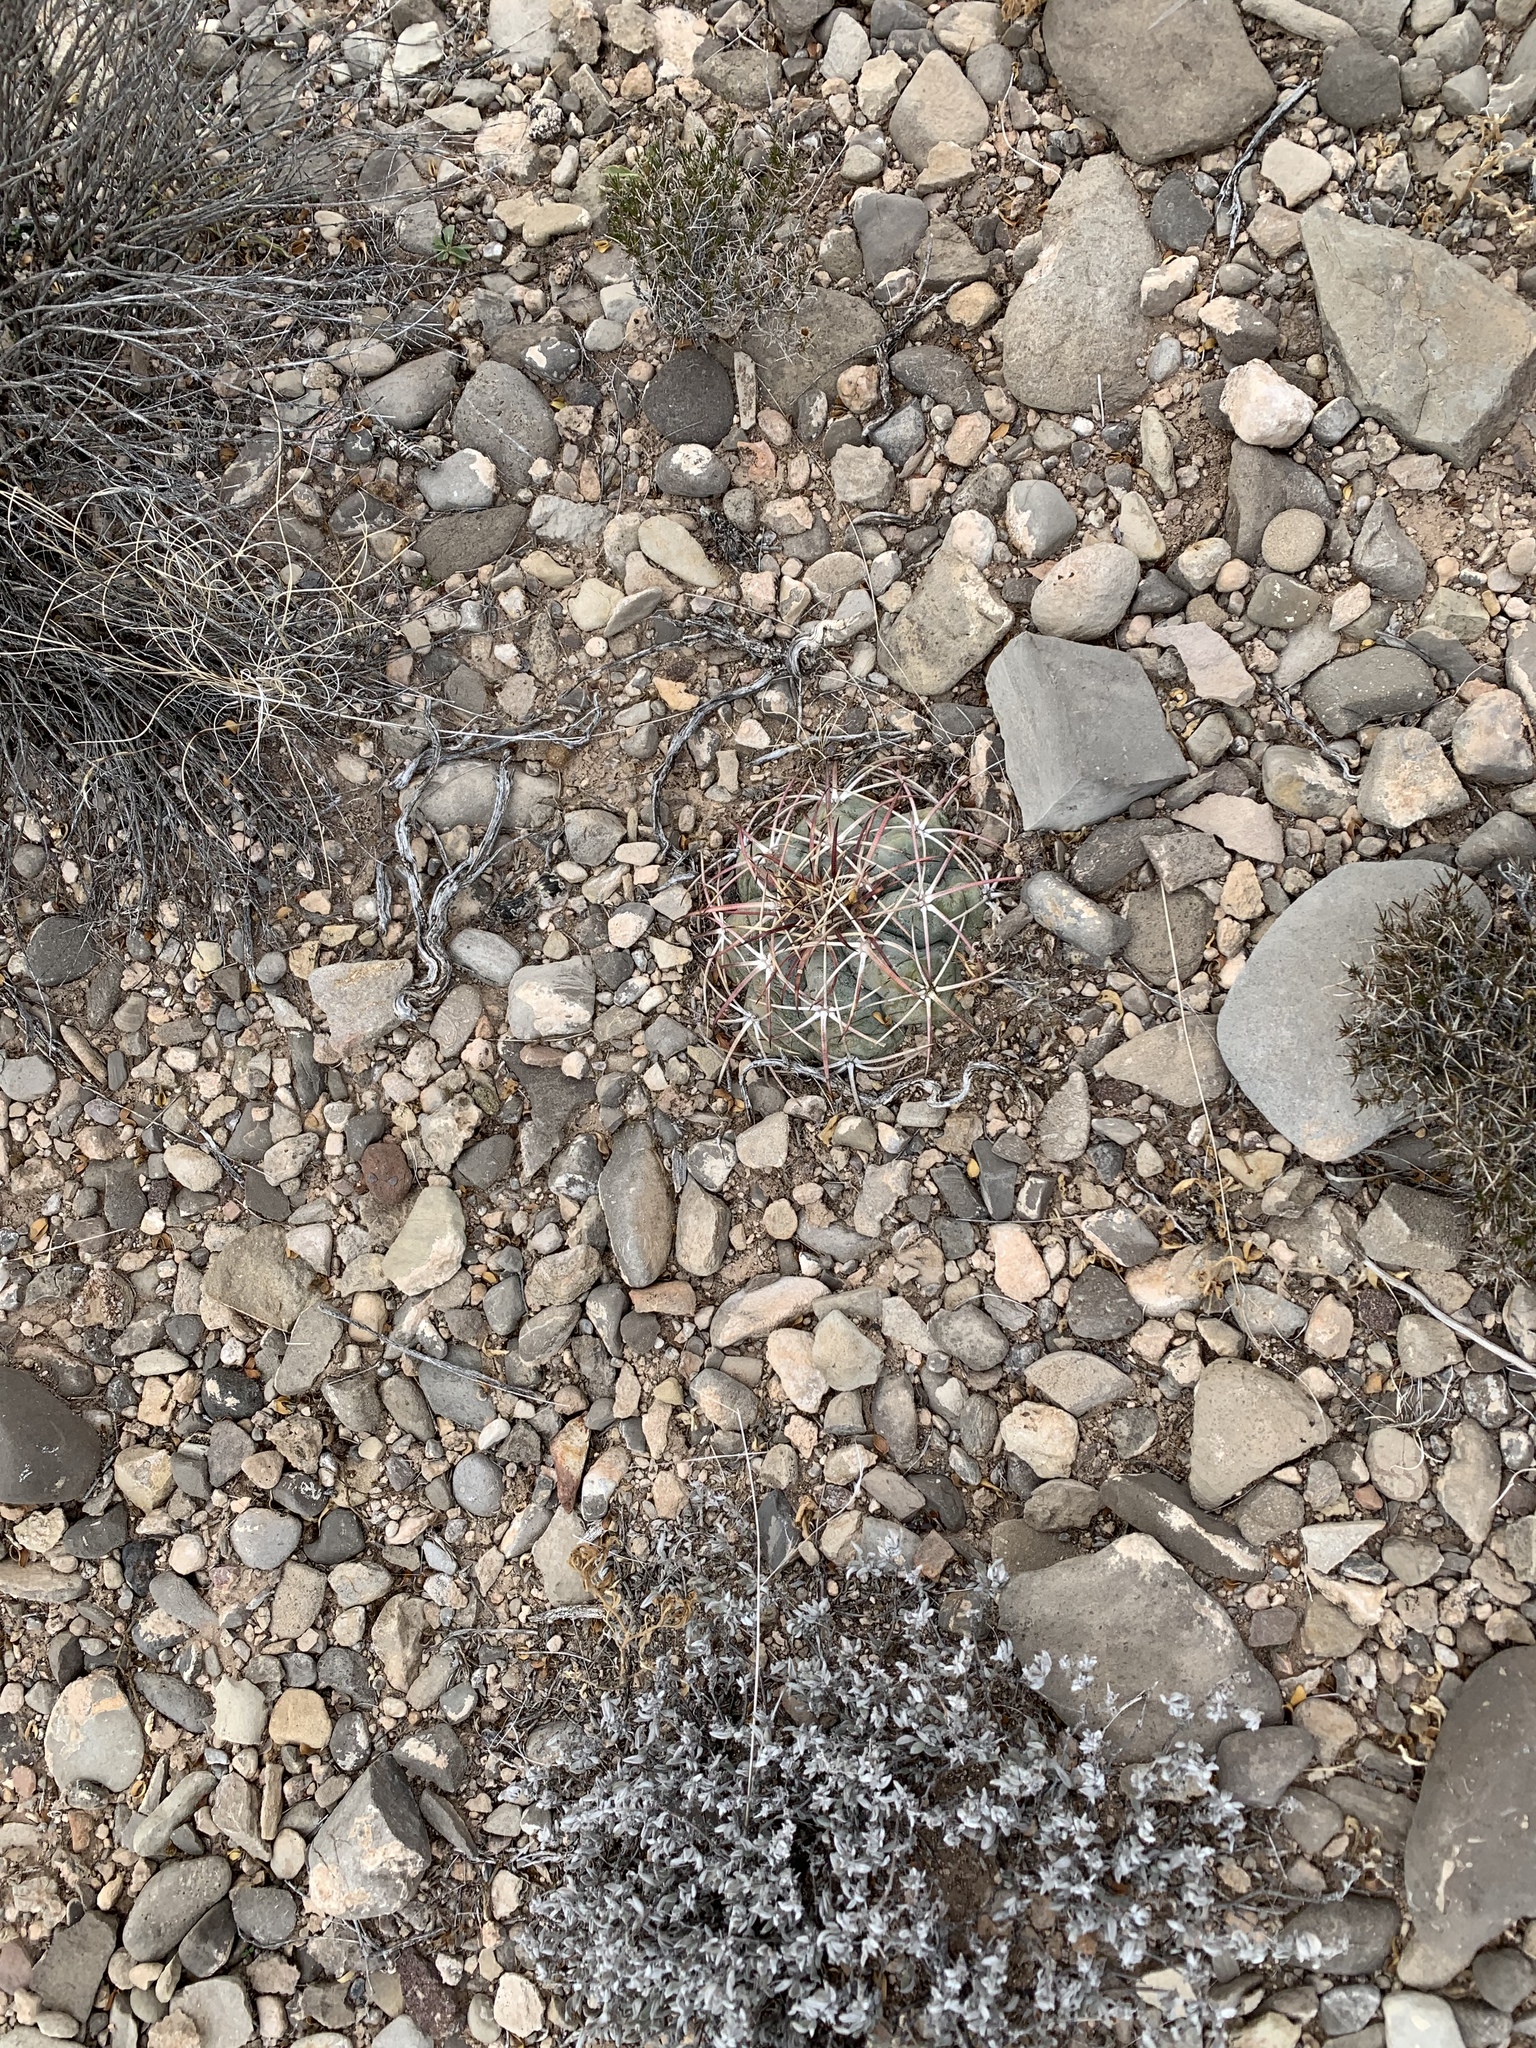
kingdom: Plantae
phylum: Tracheophyta
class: Magnoliopsida
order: Caryophyllales
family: Cactaceae
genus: Echinocactus
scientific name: Echinocactus horizonthalonius
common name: Devilshead
